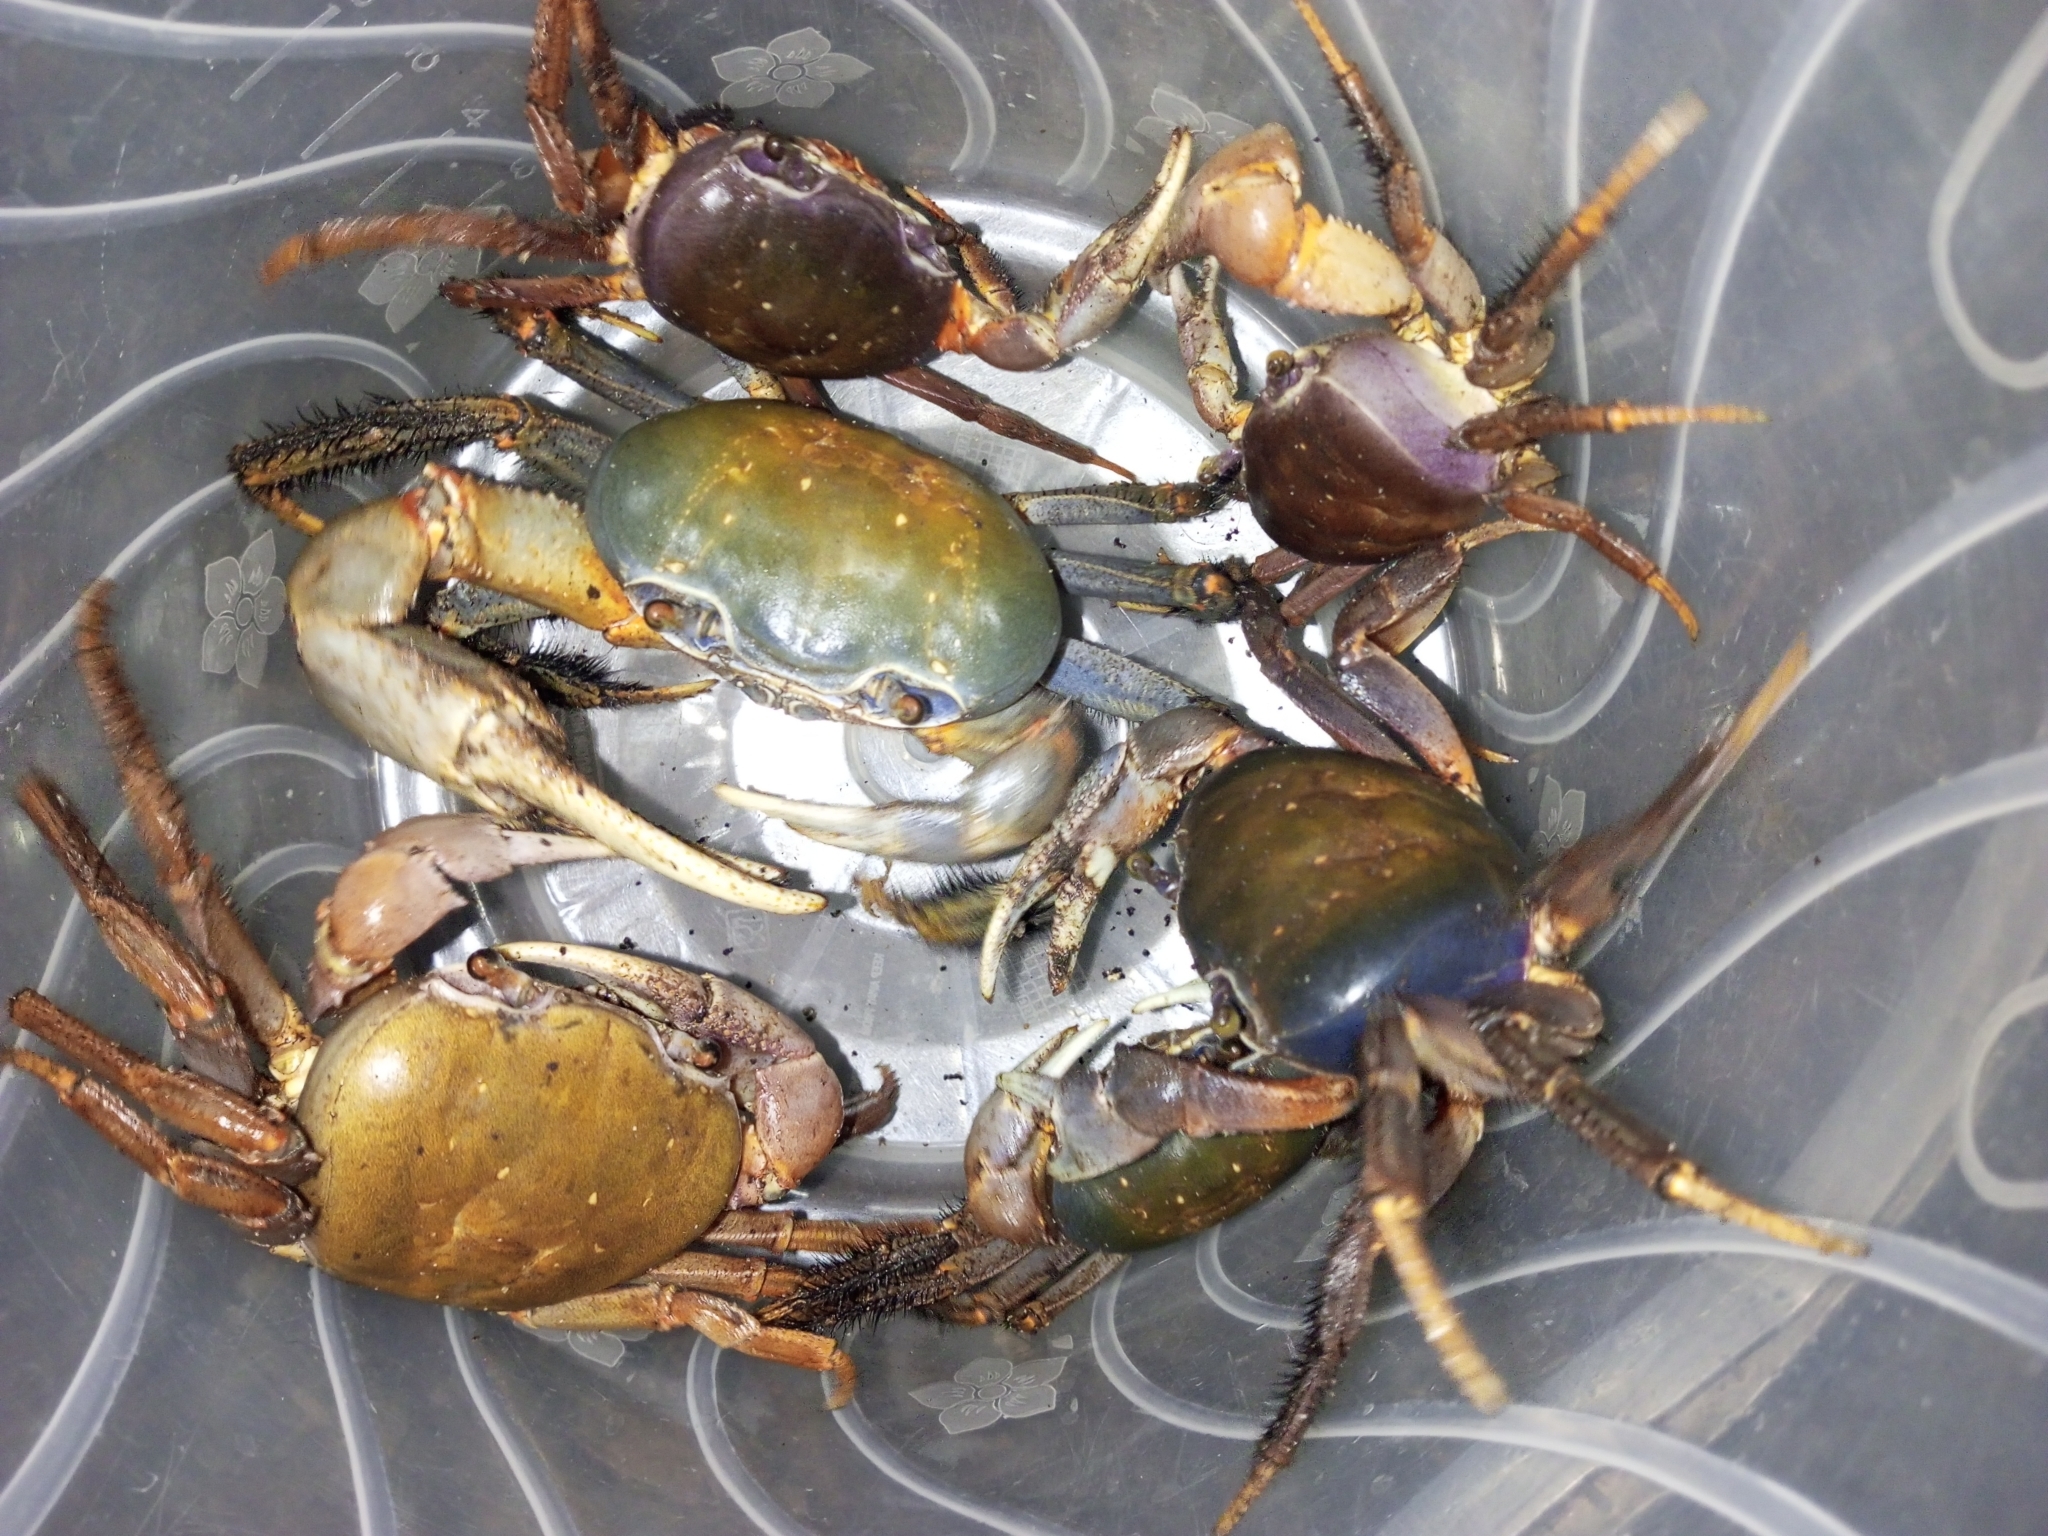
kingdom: Animalia
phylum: Arthropoda
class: Malacostraca
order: Decapoda
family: Gecarcinidae
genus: Cardisoma
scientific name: Cardisoma armatum
